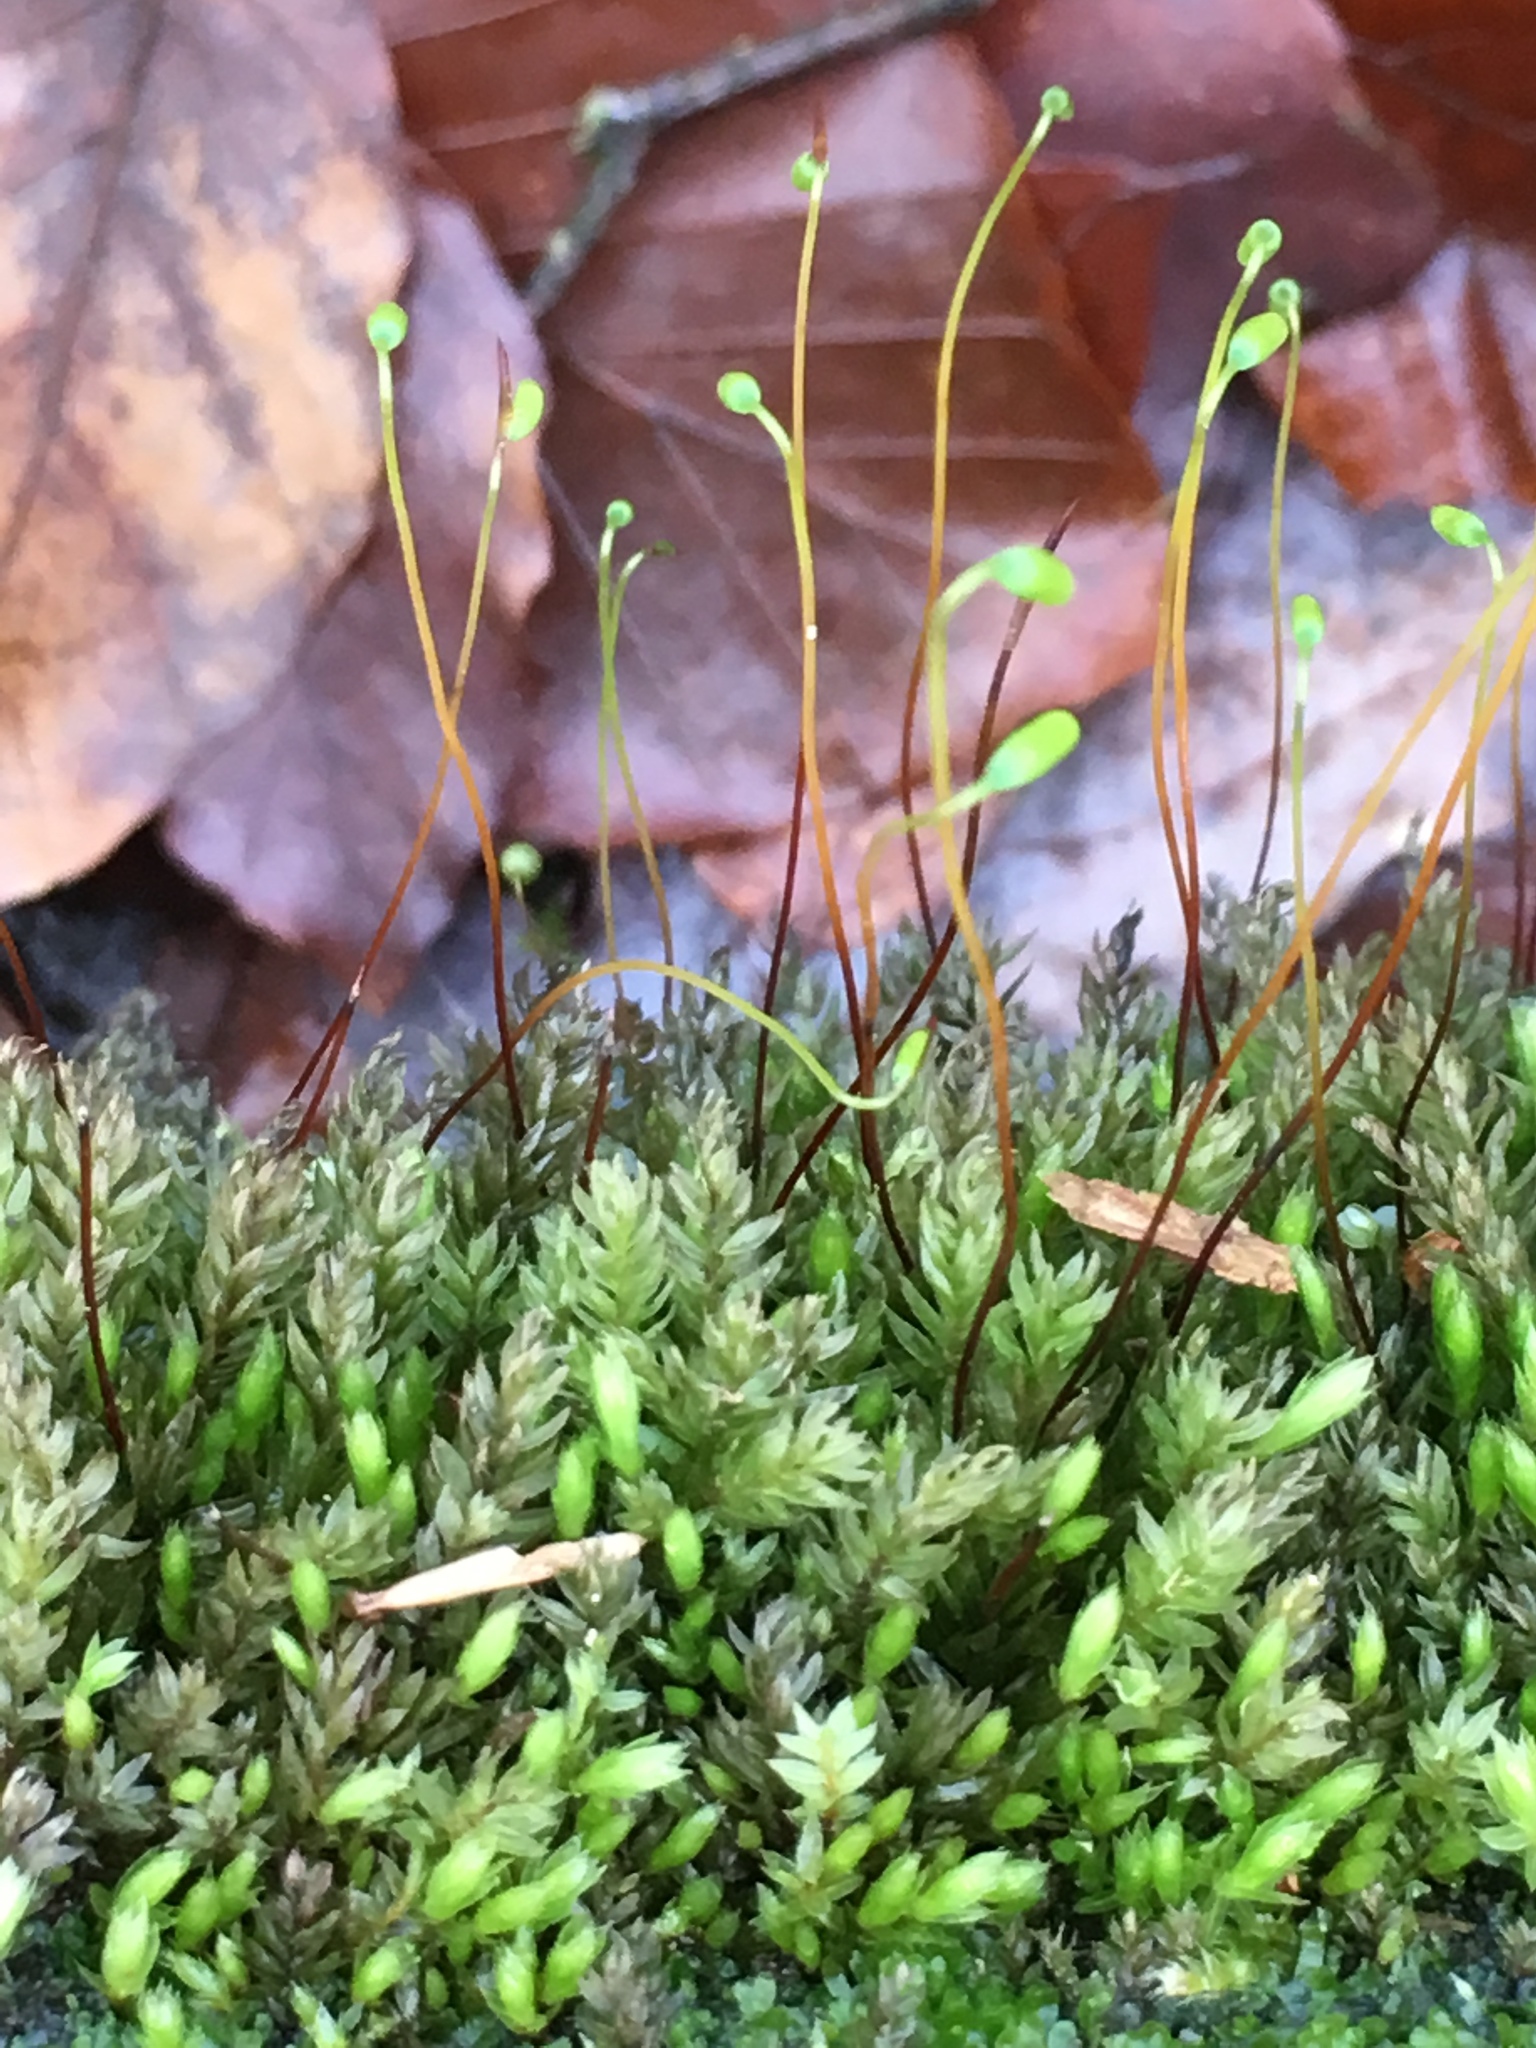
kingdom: Plantae
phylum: Bryophyta
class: Bryopsida
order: Bryales
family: Mniaceae
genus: Mnium
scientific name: Mnium hornum
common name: Swan's-neck leafy moss
